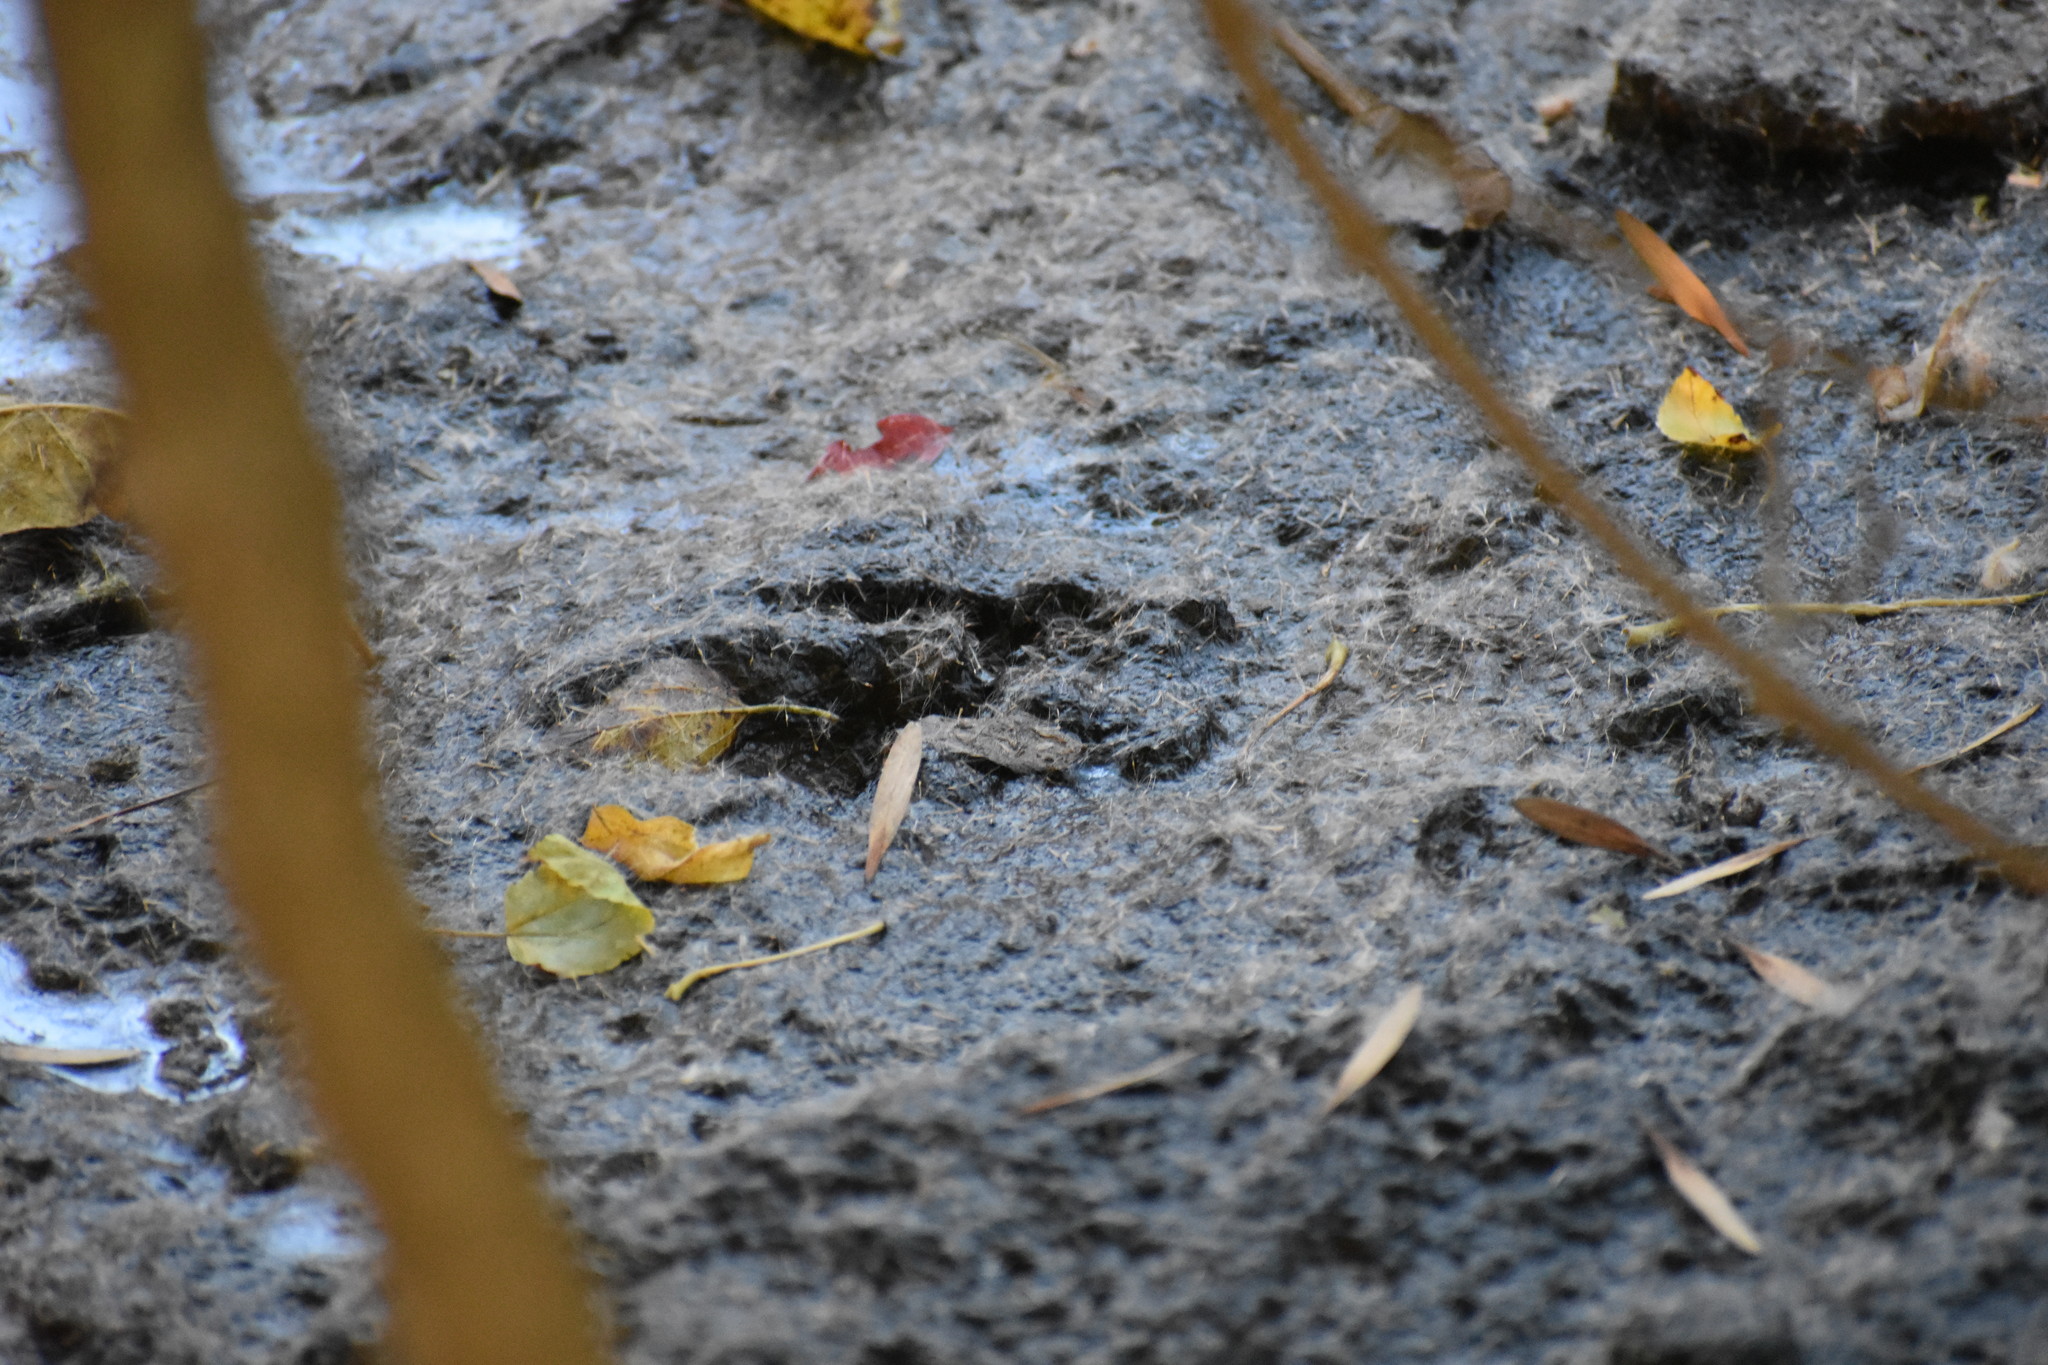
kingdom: Animalia
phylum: Chordata
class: Mammalia
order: Artiodactyla
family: Cervidae
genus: Odocoileus
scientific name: Odocoileus virginianus
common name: White-tailed deer
